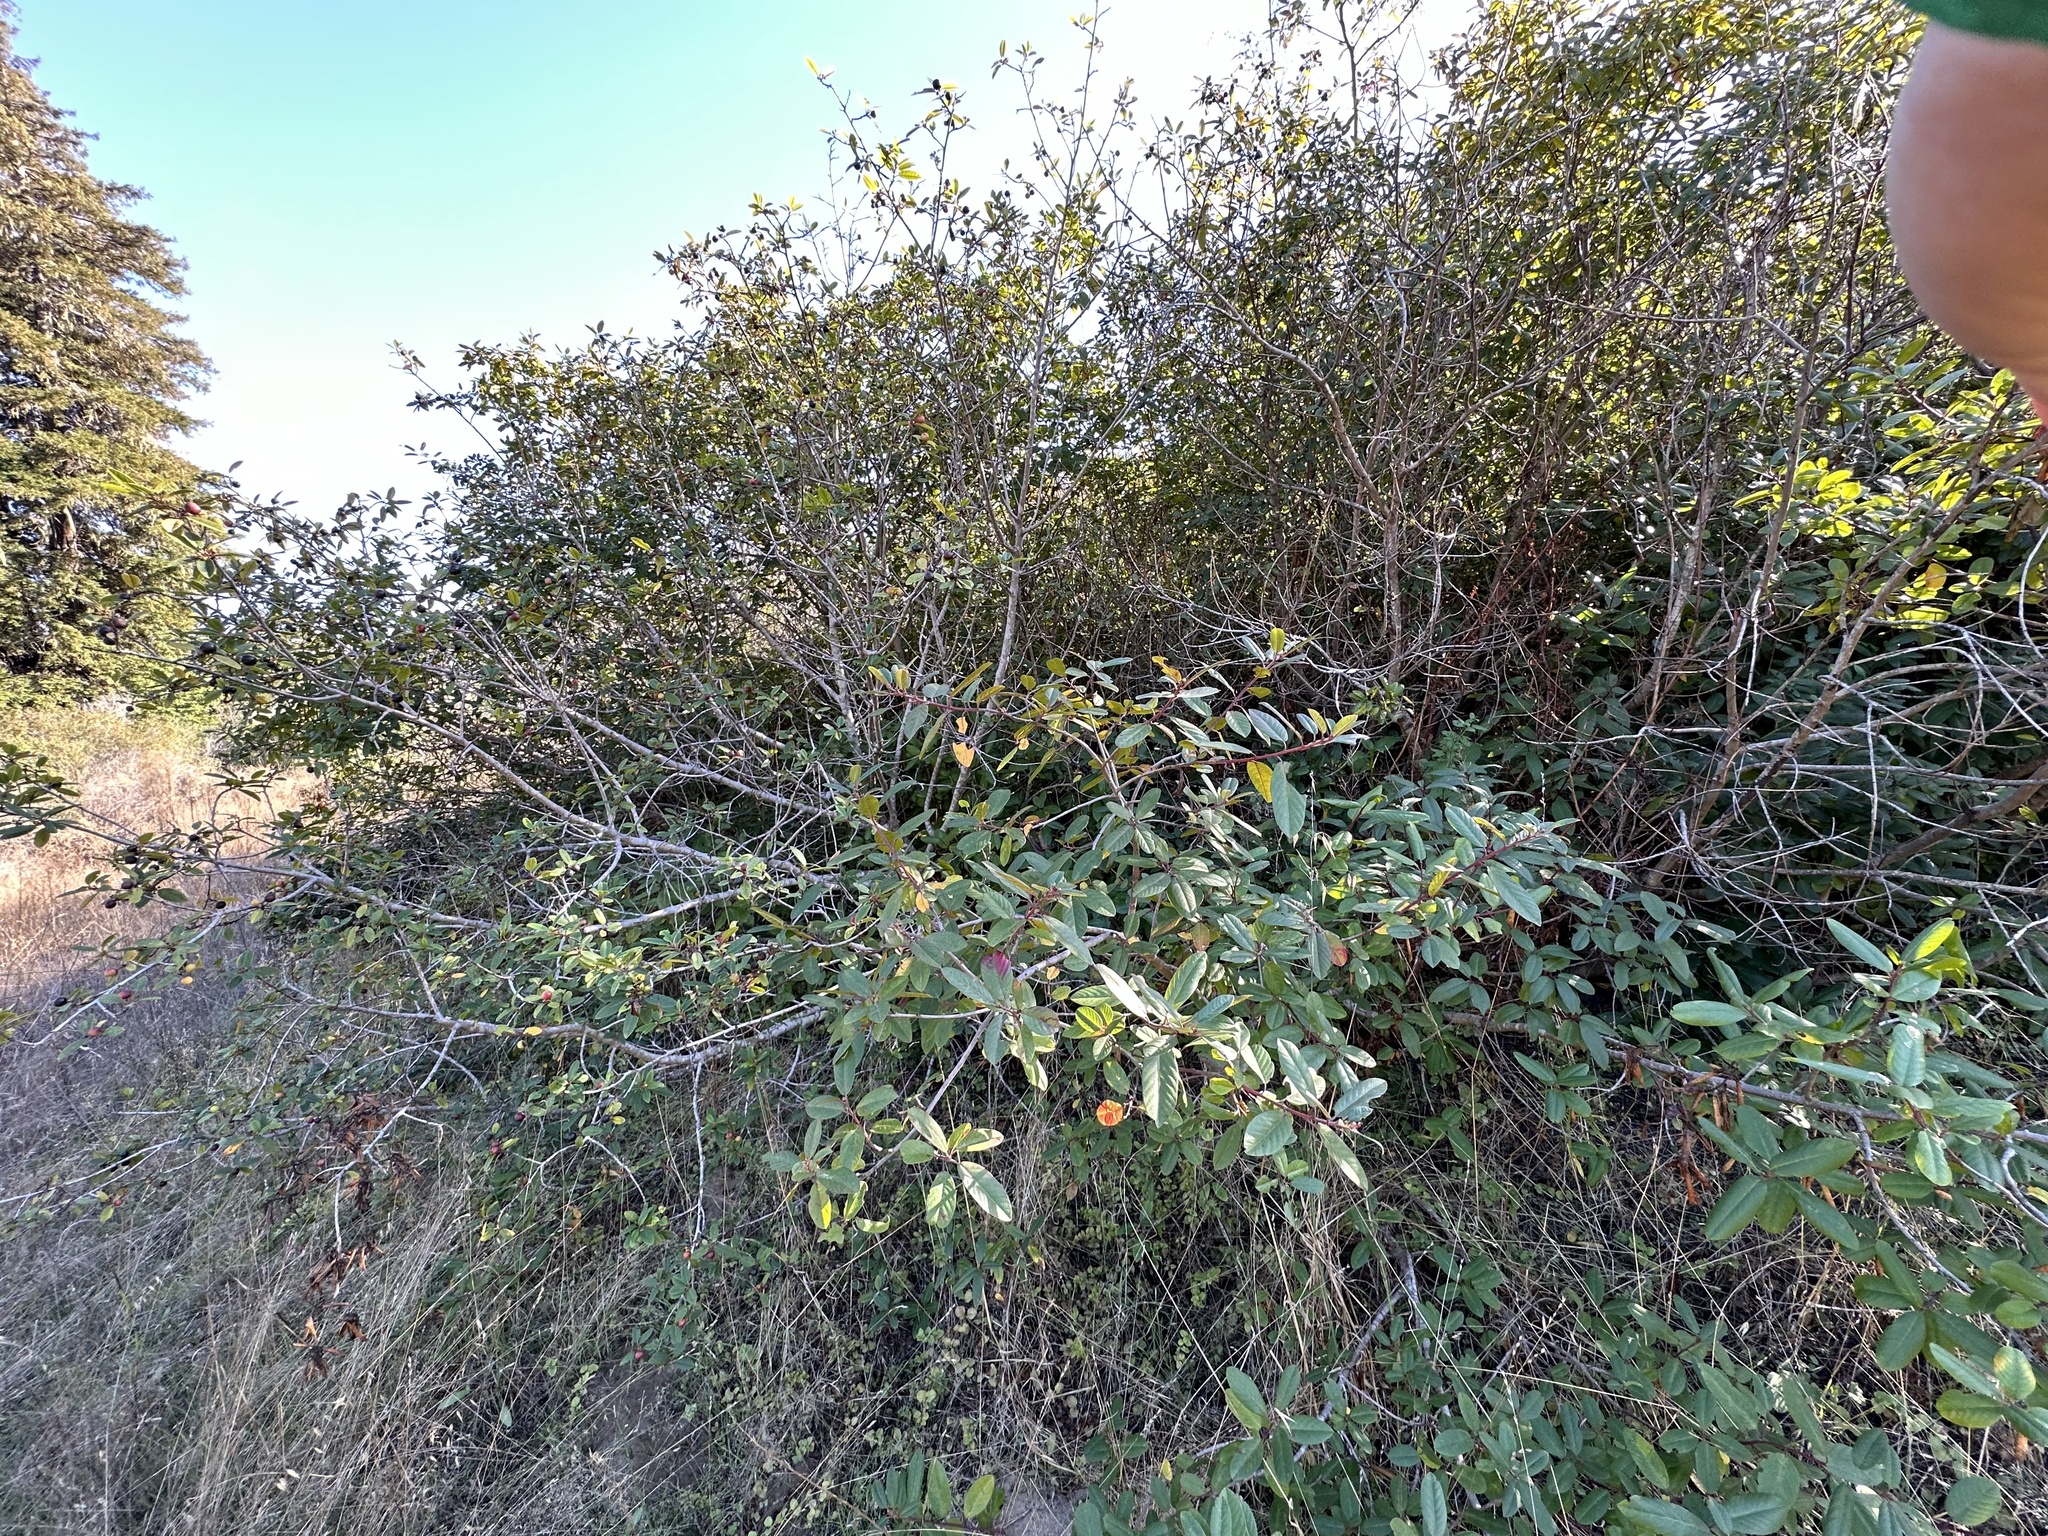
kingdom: Plantae
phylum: Tracheophyta
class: Magnoliopsida
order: Rosales
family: Rhamnaceae
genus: Frangula
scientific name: Frangula californica
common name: California buckthorn
